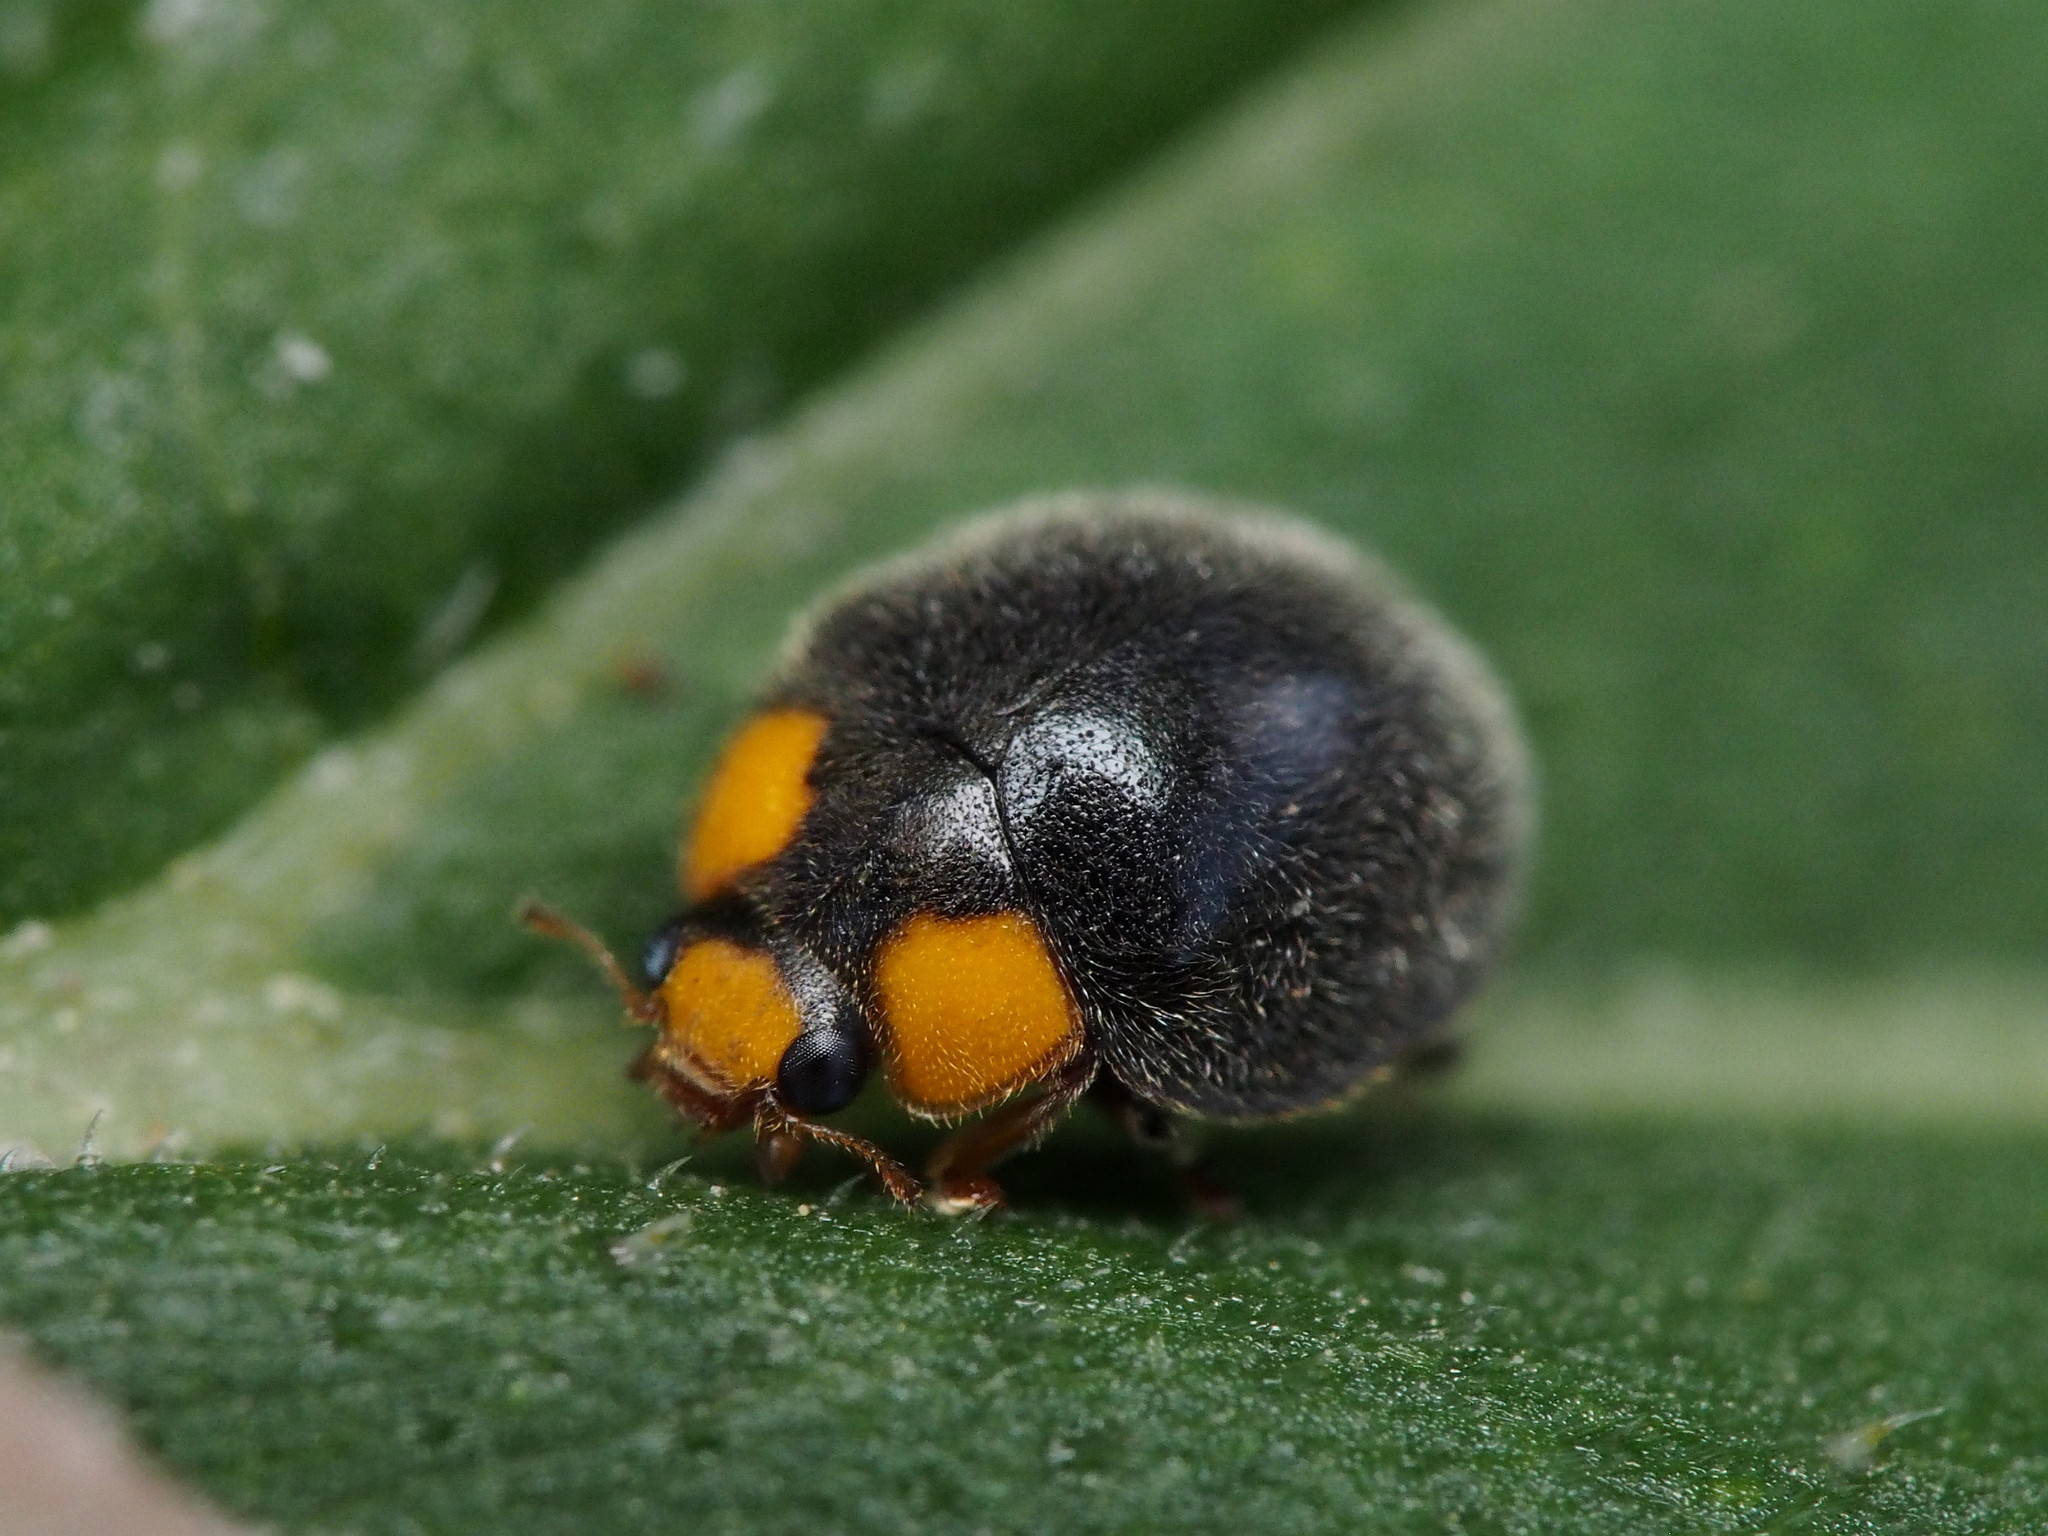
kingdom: Animalia
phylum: Arthropoda
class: Insecta
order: Coleoptera
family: Coccinellidae
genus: Scymnodes
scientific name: Scymnodes lividigaster
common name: Yellowshouldered lady beetle
